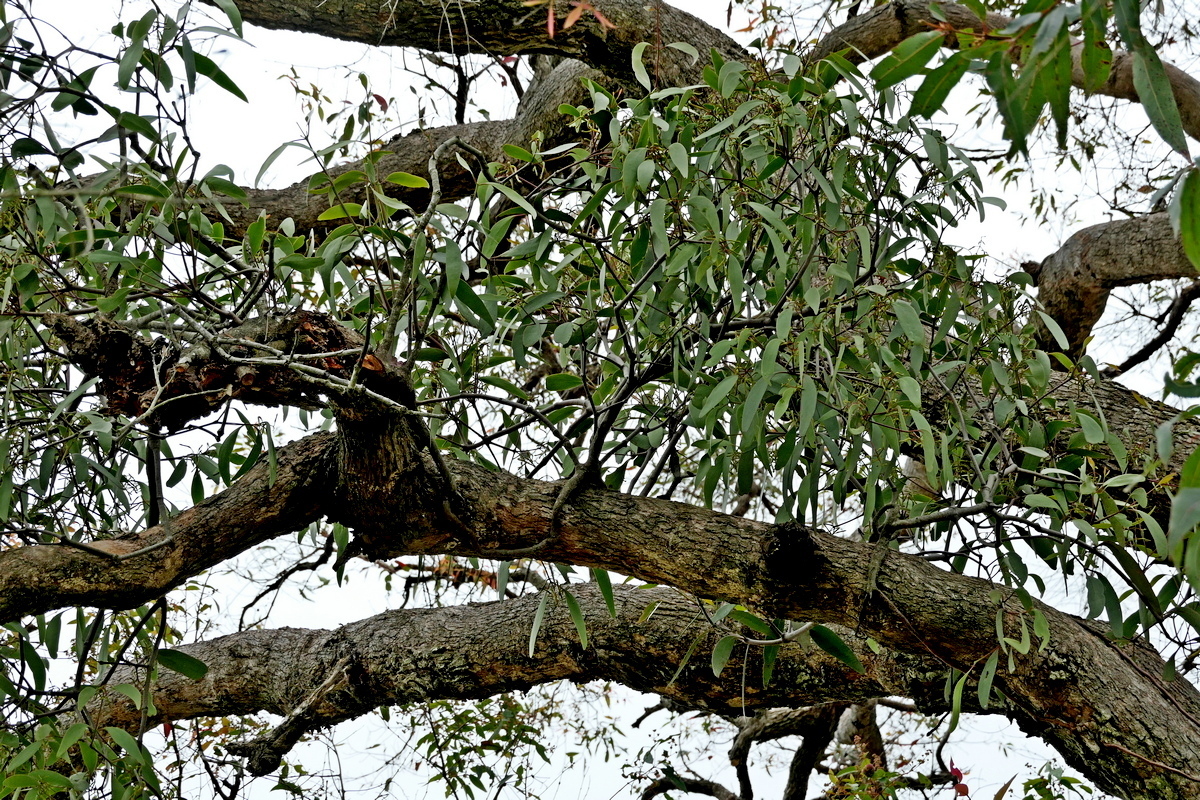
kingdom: Plantae
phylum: Tracheophyta
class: Magnoliopsida
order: Santalales
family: Loranthaceae
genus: Muellerina
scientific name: Muellerina eucalyptoides
